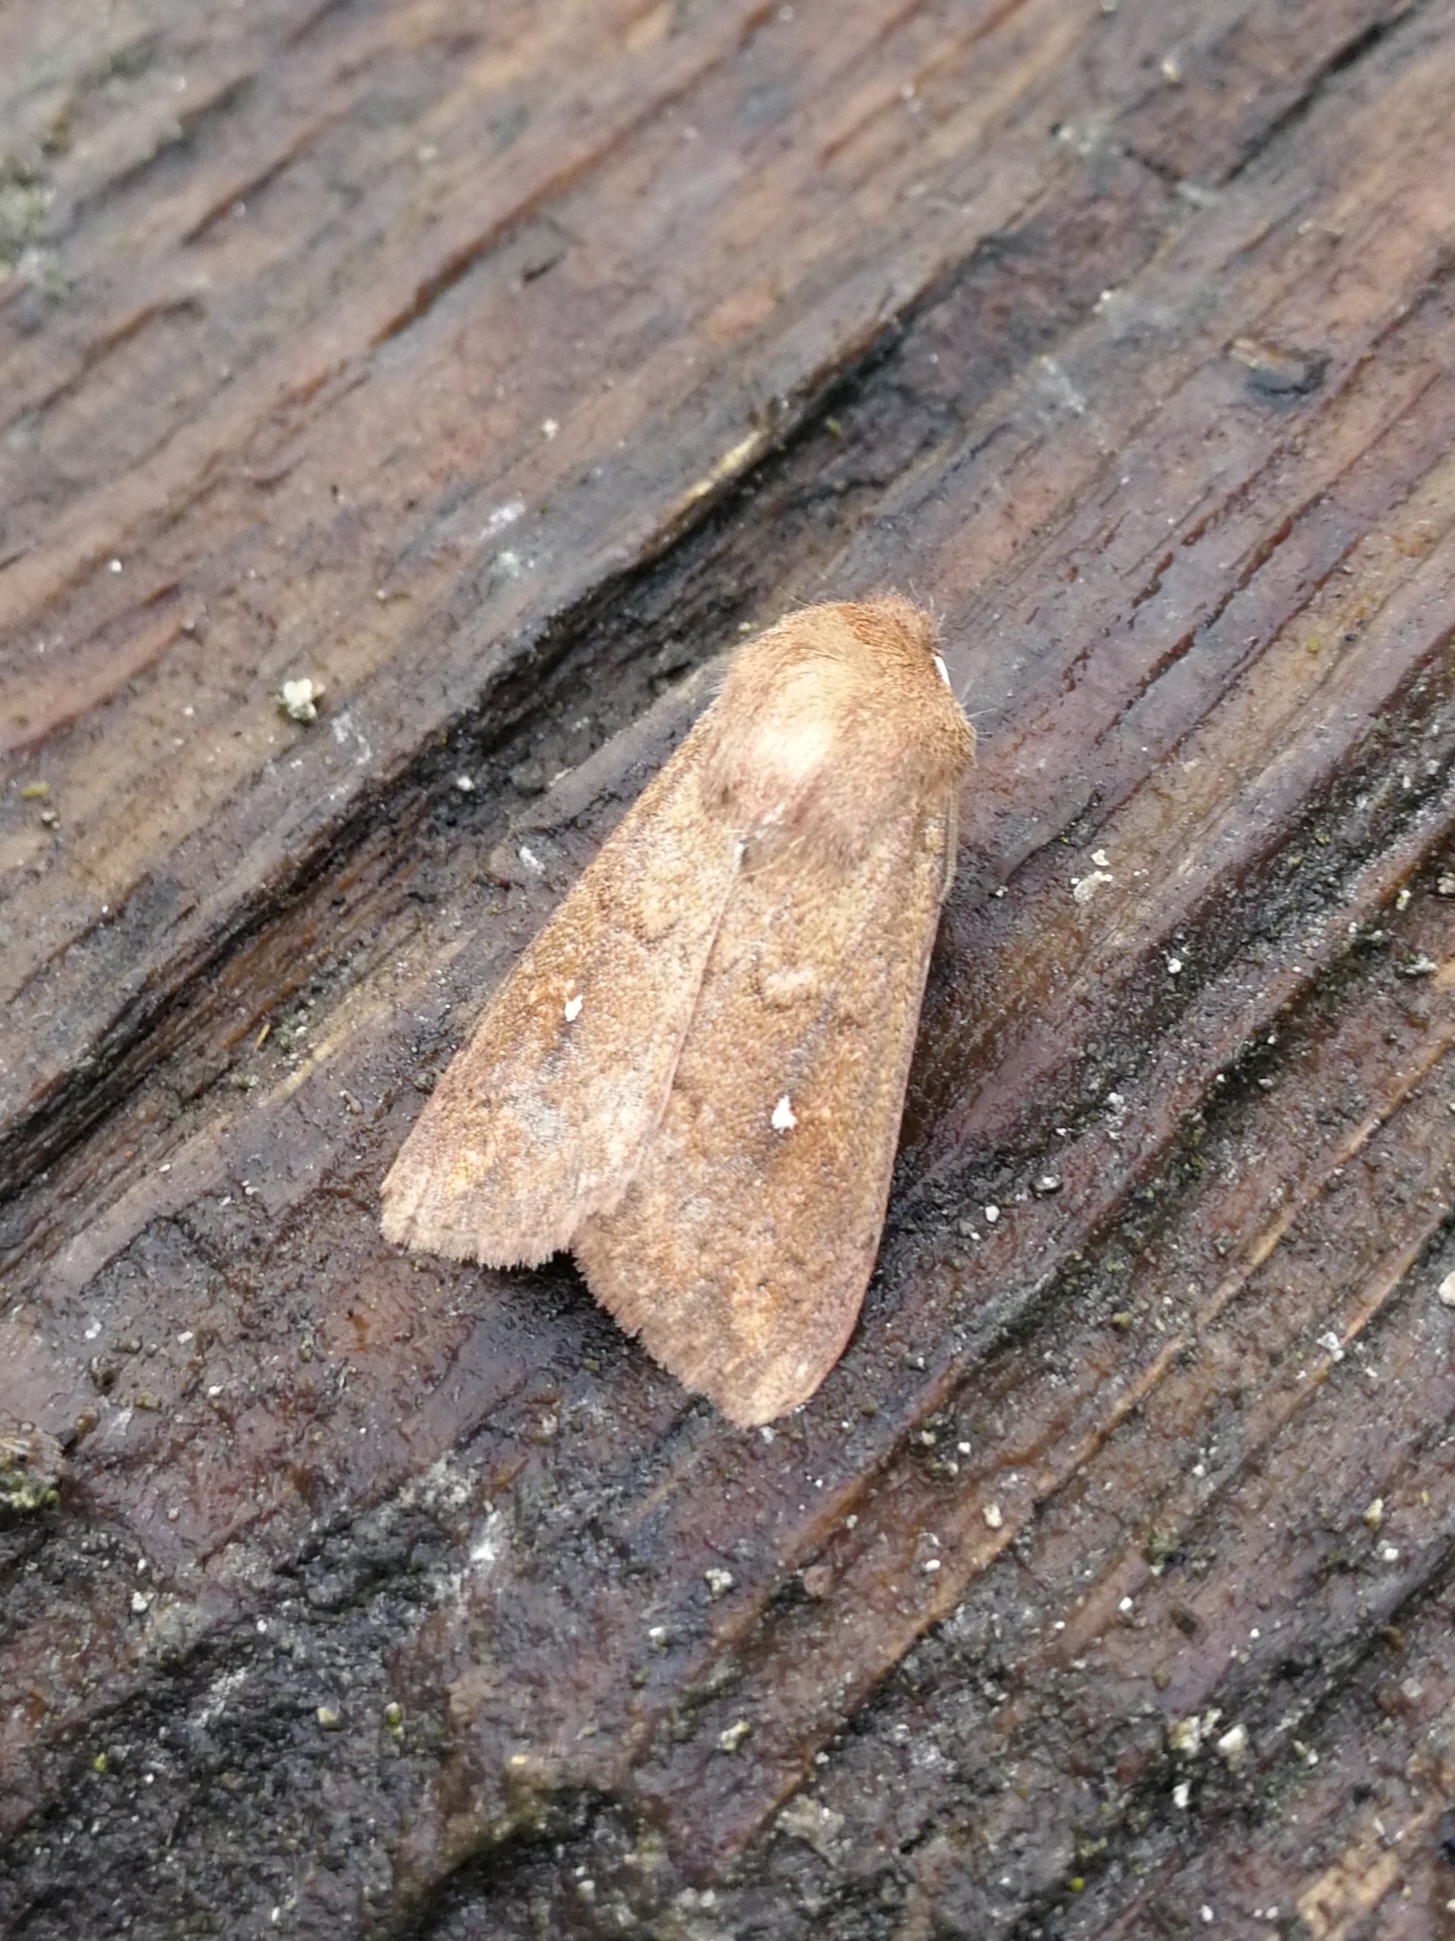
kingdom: Animalia
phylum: Arthropoda
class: Insecta
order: Lepidoptera
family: Noctuidae
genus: Mythimna
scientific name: Mythimna albipuncta
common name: White-point
